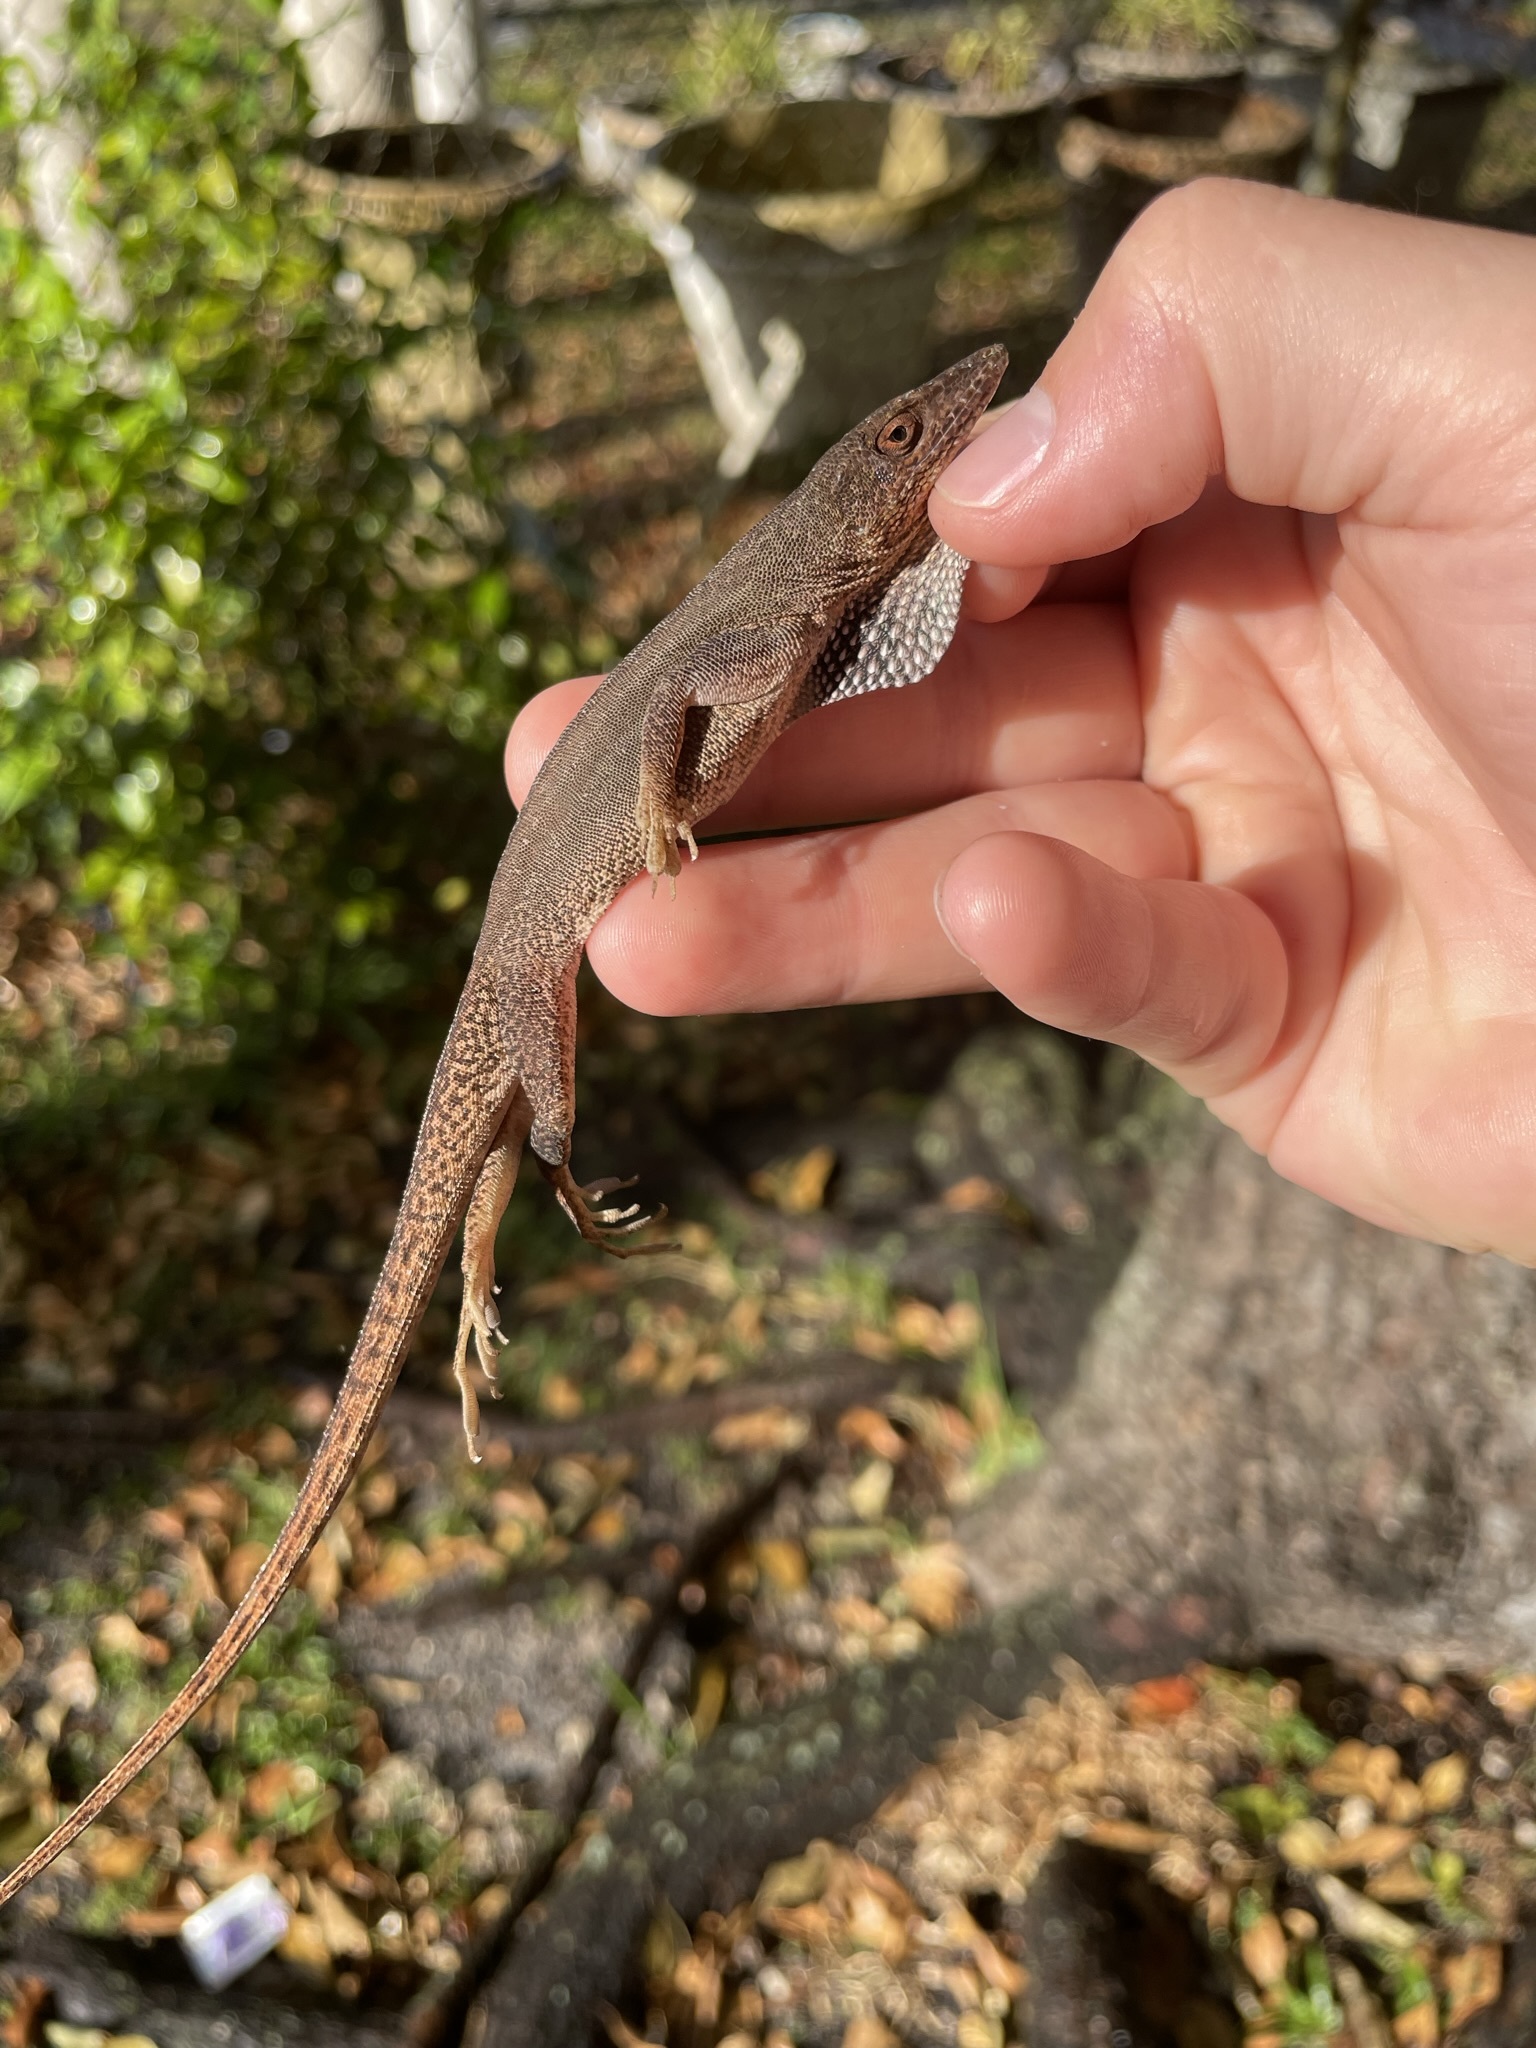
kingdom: Animalia
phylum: Chordata
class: Squamata
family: Dactyloidae
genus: Anolis
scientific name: Anolis chlorocyanus
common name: Hispaniolan green anole
